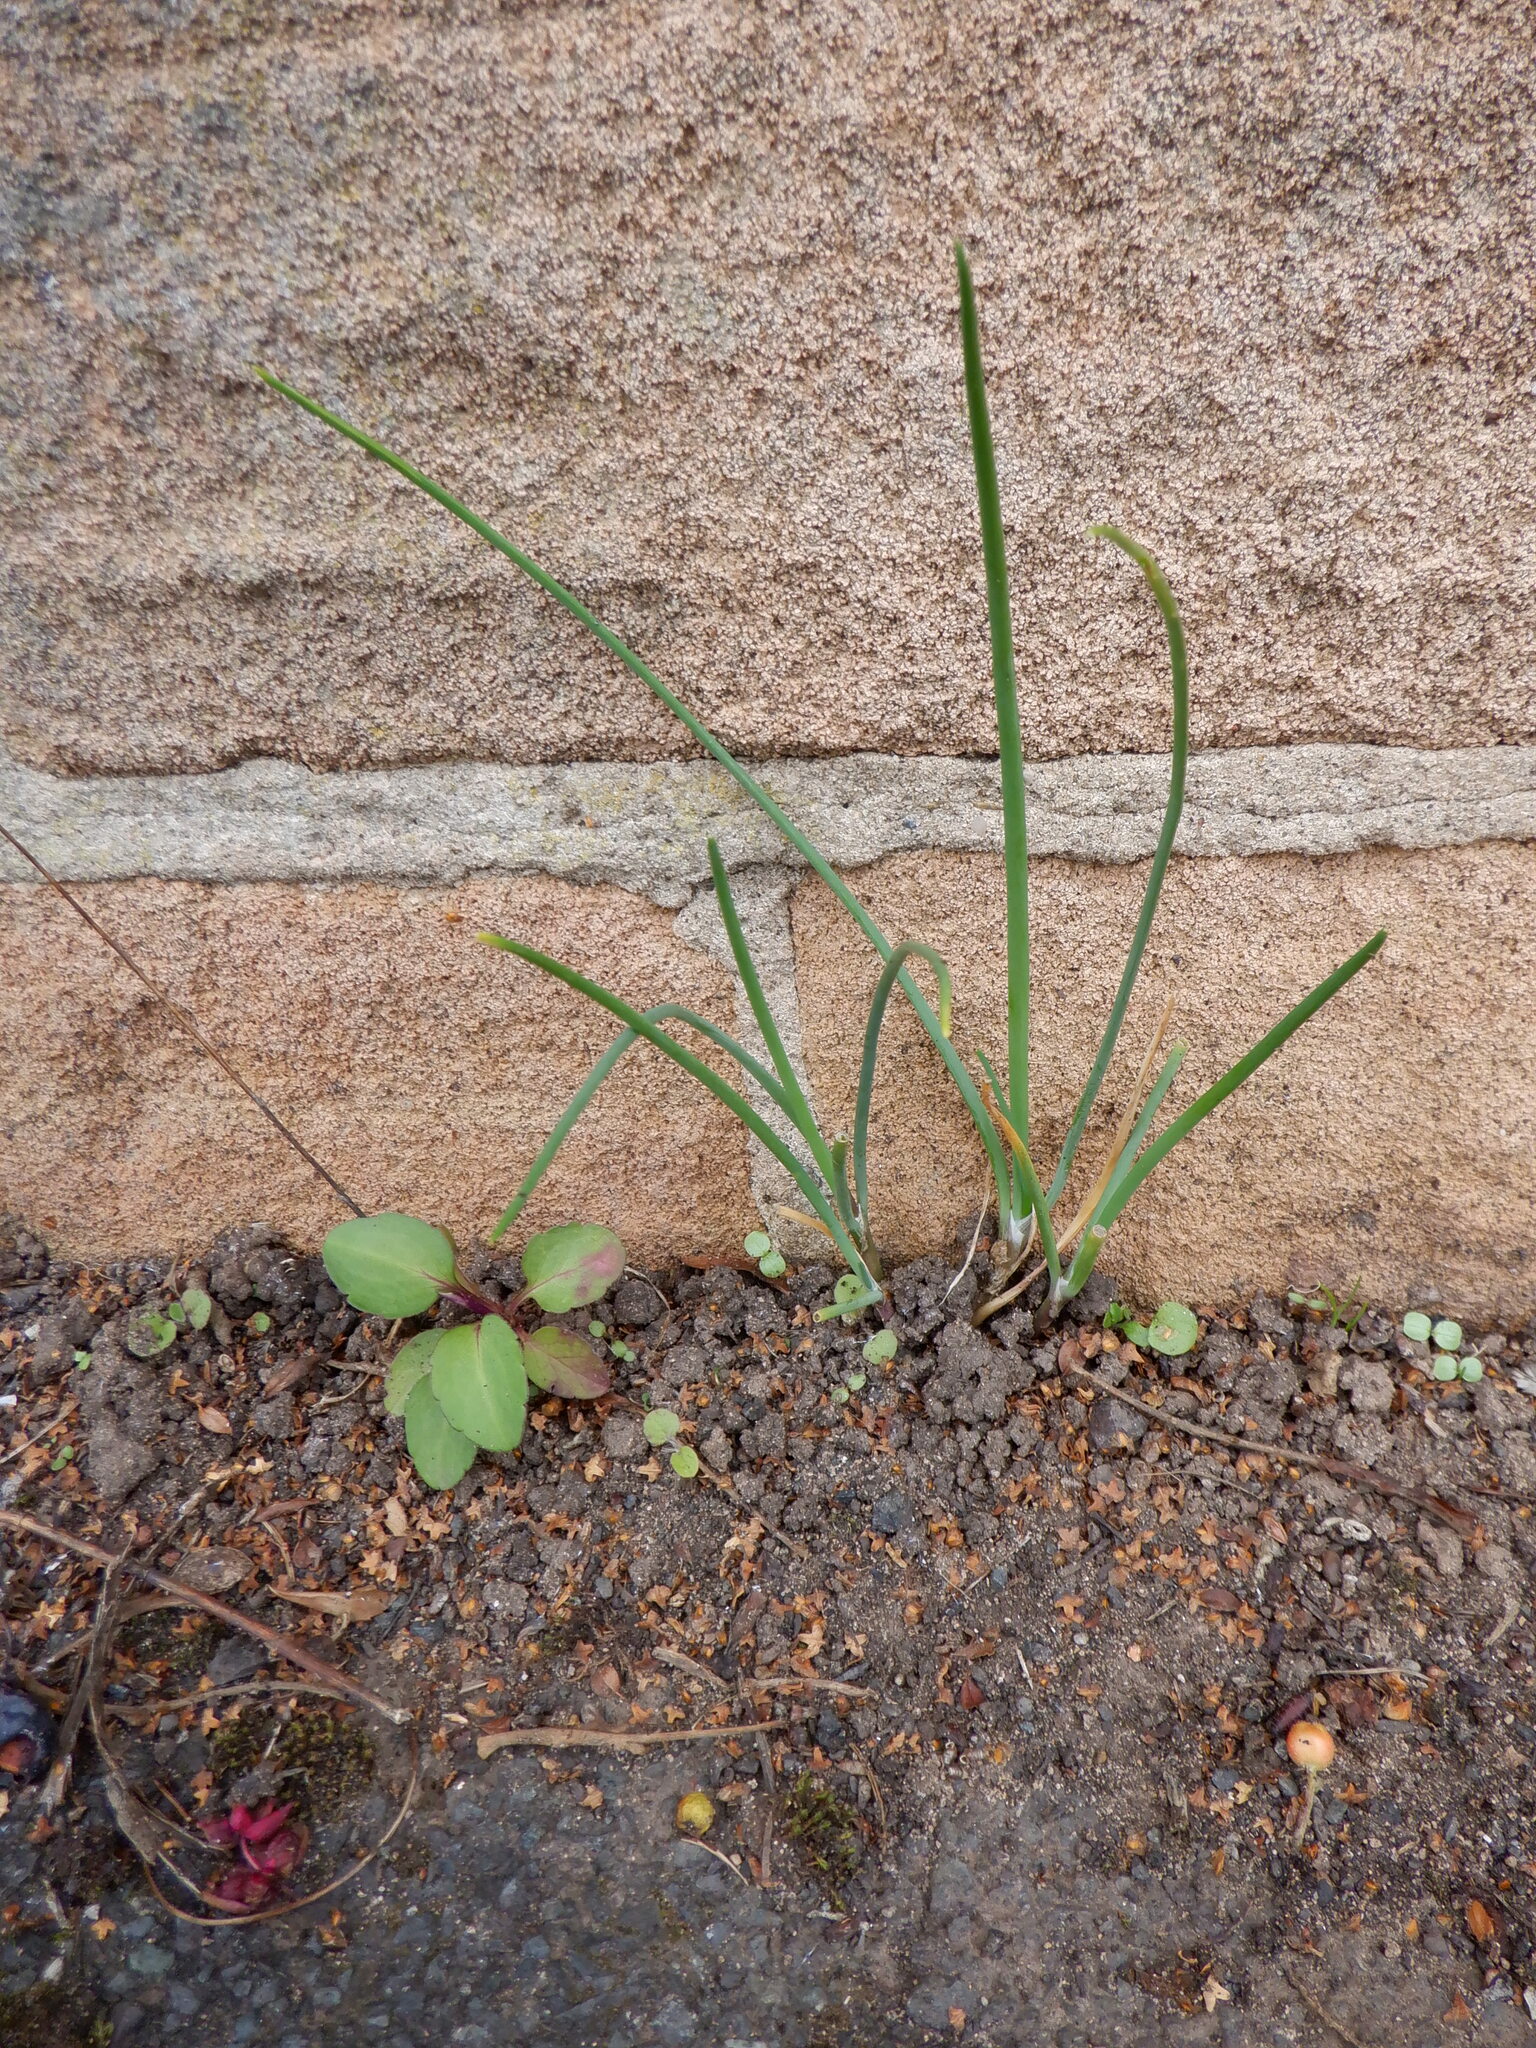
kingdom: Plantae
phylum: Tracheophyta
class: Liliopsida
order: Asparagales
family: Amaryllidaceae
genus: Allium
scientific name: Allium schoenoprasum
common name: Chives
